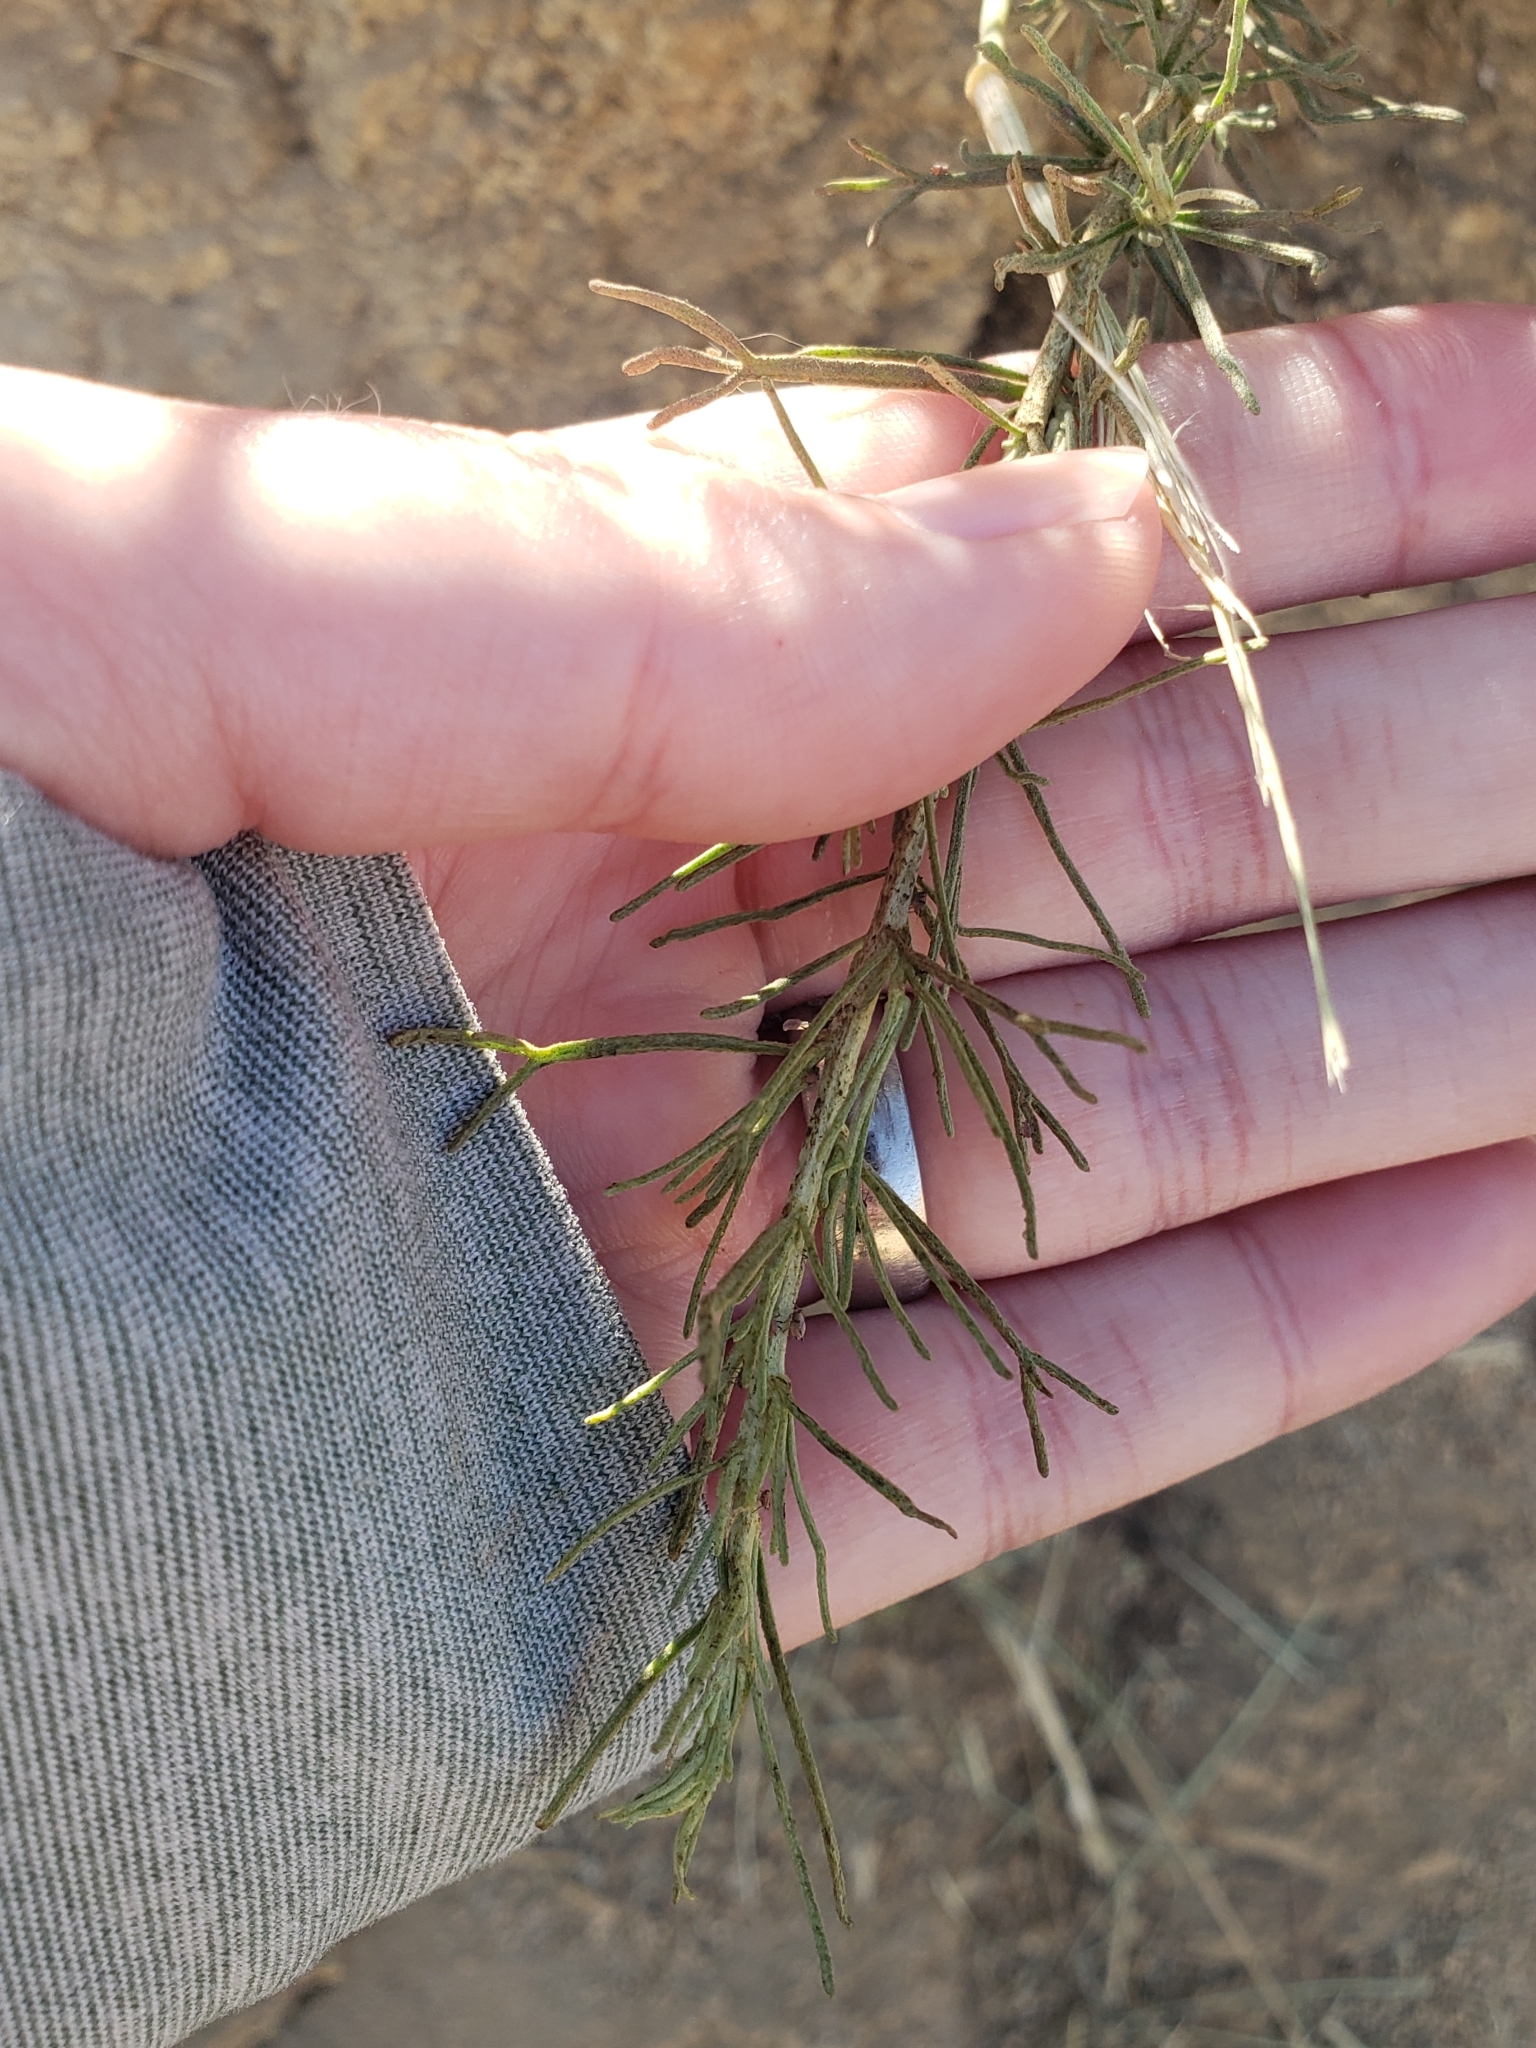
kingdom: Plantae
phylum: Tracheophyta
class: Magnoliopsida
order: Asterales
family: Asteraceae
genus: Artemisia
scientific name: Artemisia californica
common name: California sagebrush
